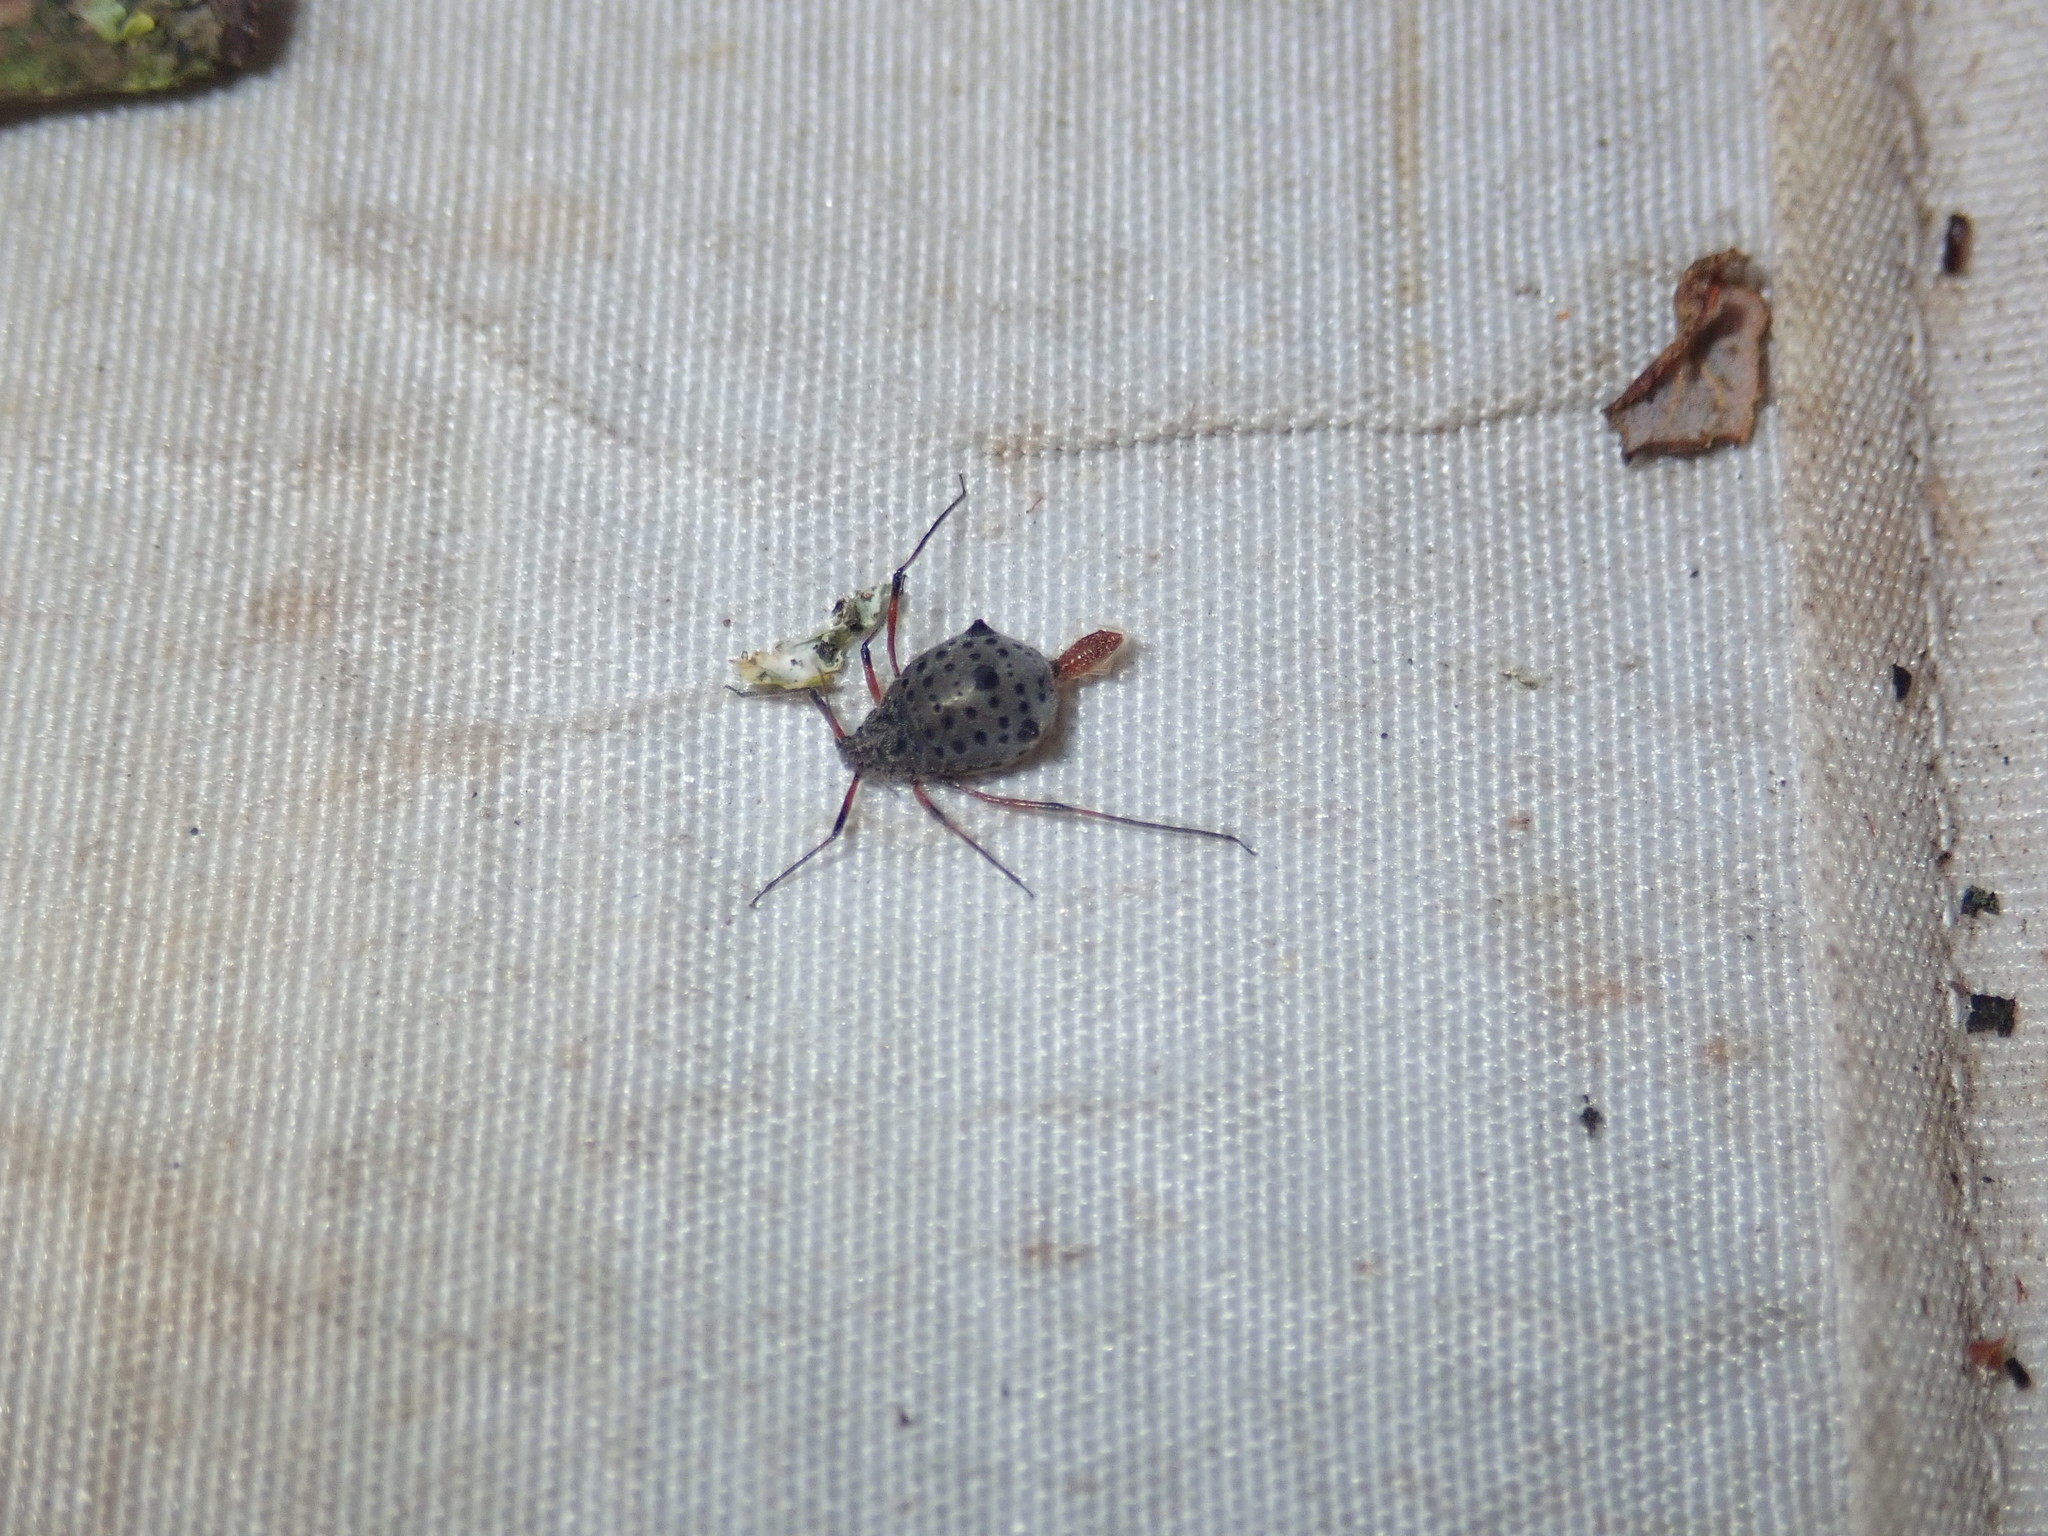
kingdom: Animalia
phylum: Arthropoda
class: Insecta
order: Hemiptera
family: Aphididae
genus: Tuberolachnus
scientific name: Tuberolachnus salignus
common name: Giant willow aphid
